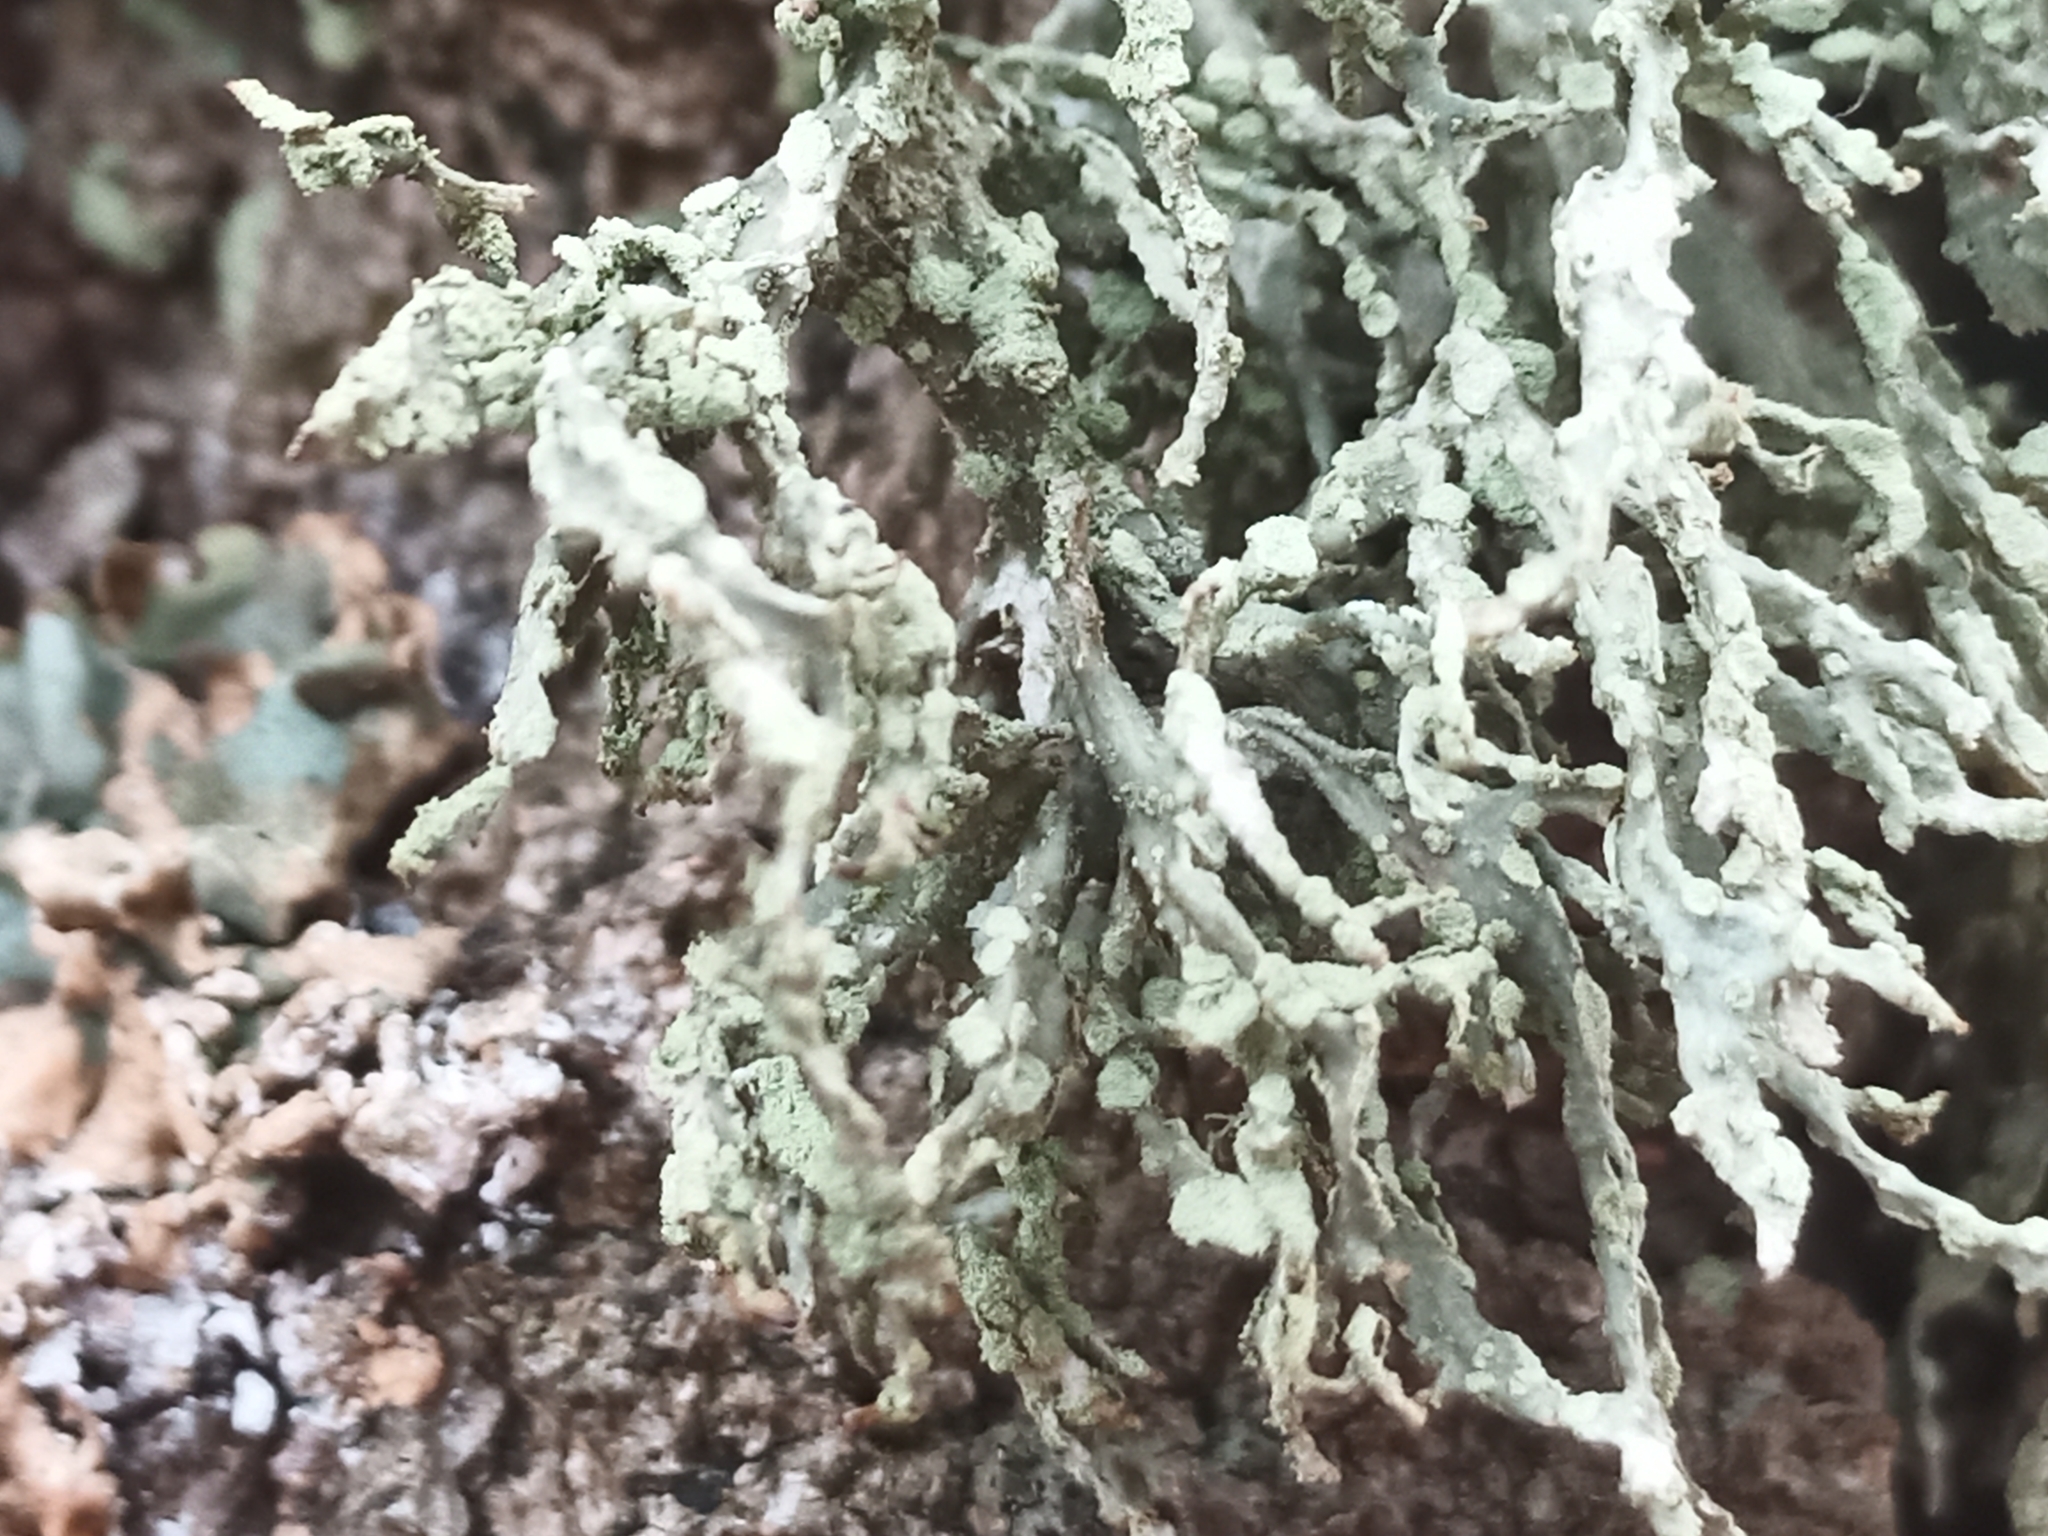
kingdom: Fungi
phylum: Ascomycota
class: Lecanoromycetes
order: Lecanorales
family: Ramalinaceae
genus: Ramalina
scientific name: Ramalina farinacea
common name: Farinose cartilage lichen
